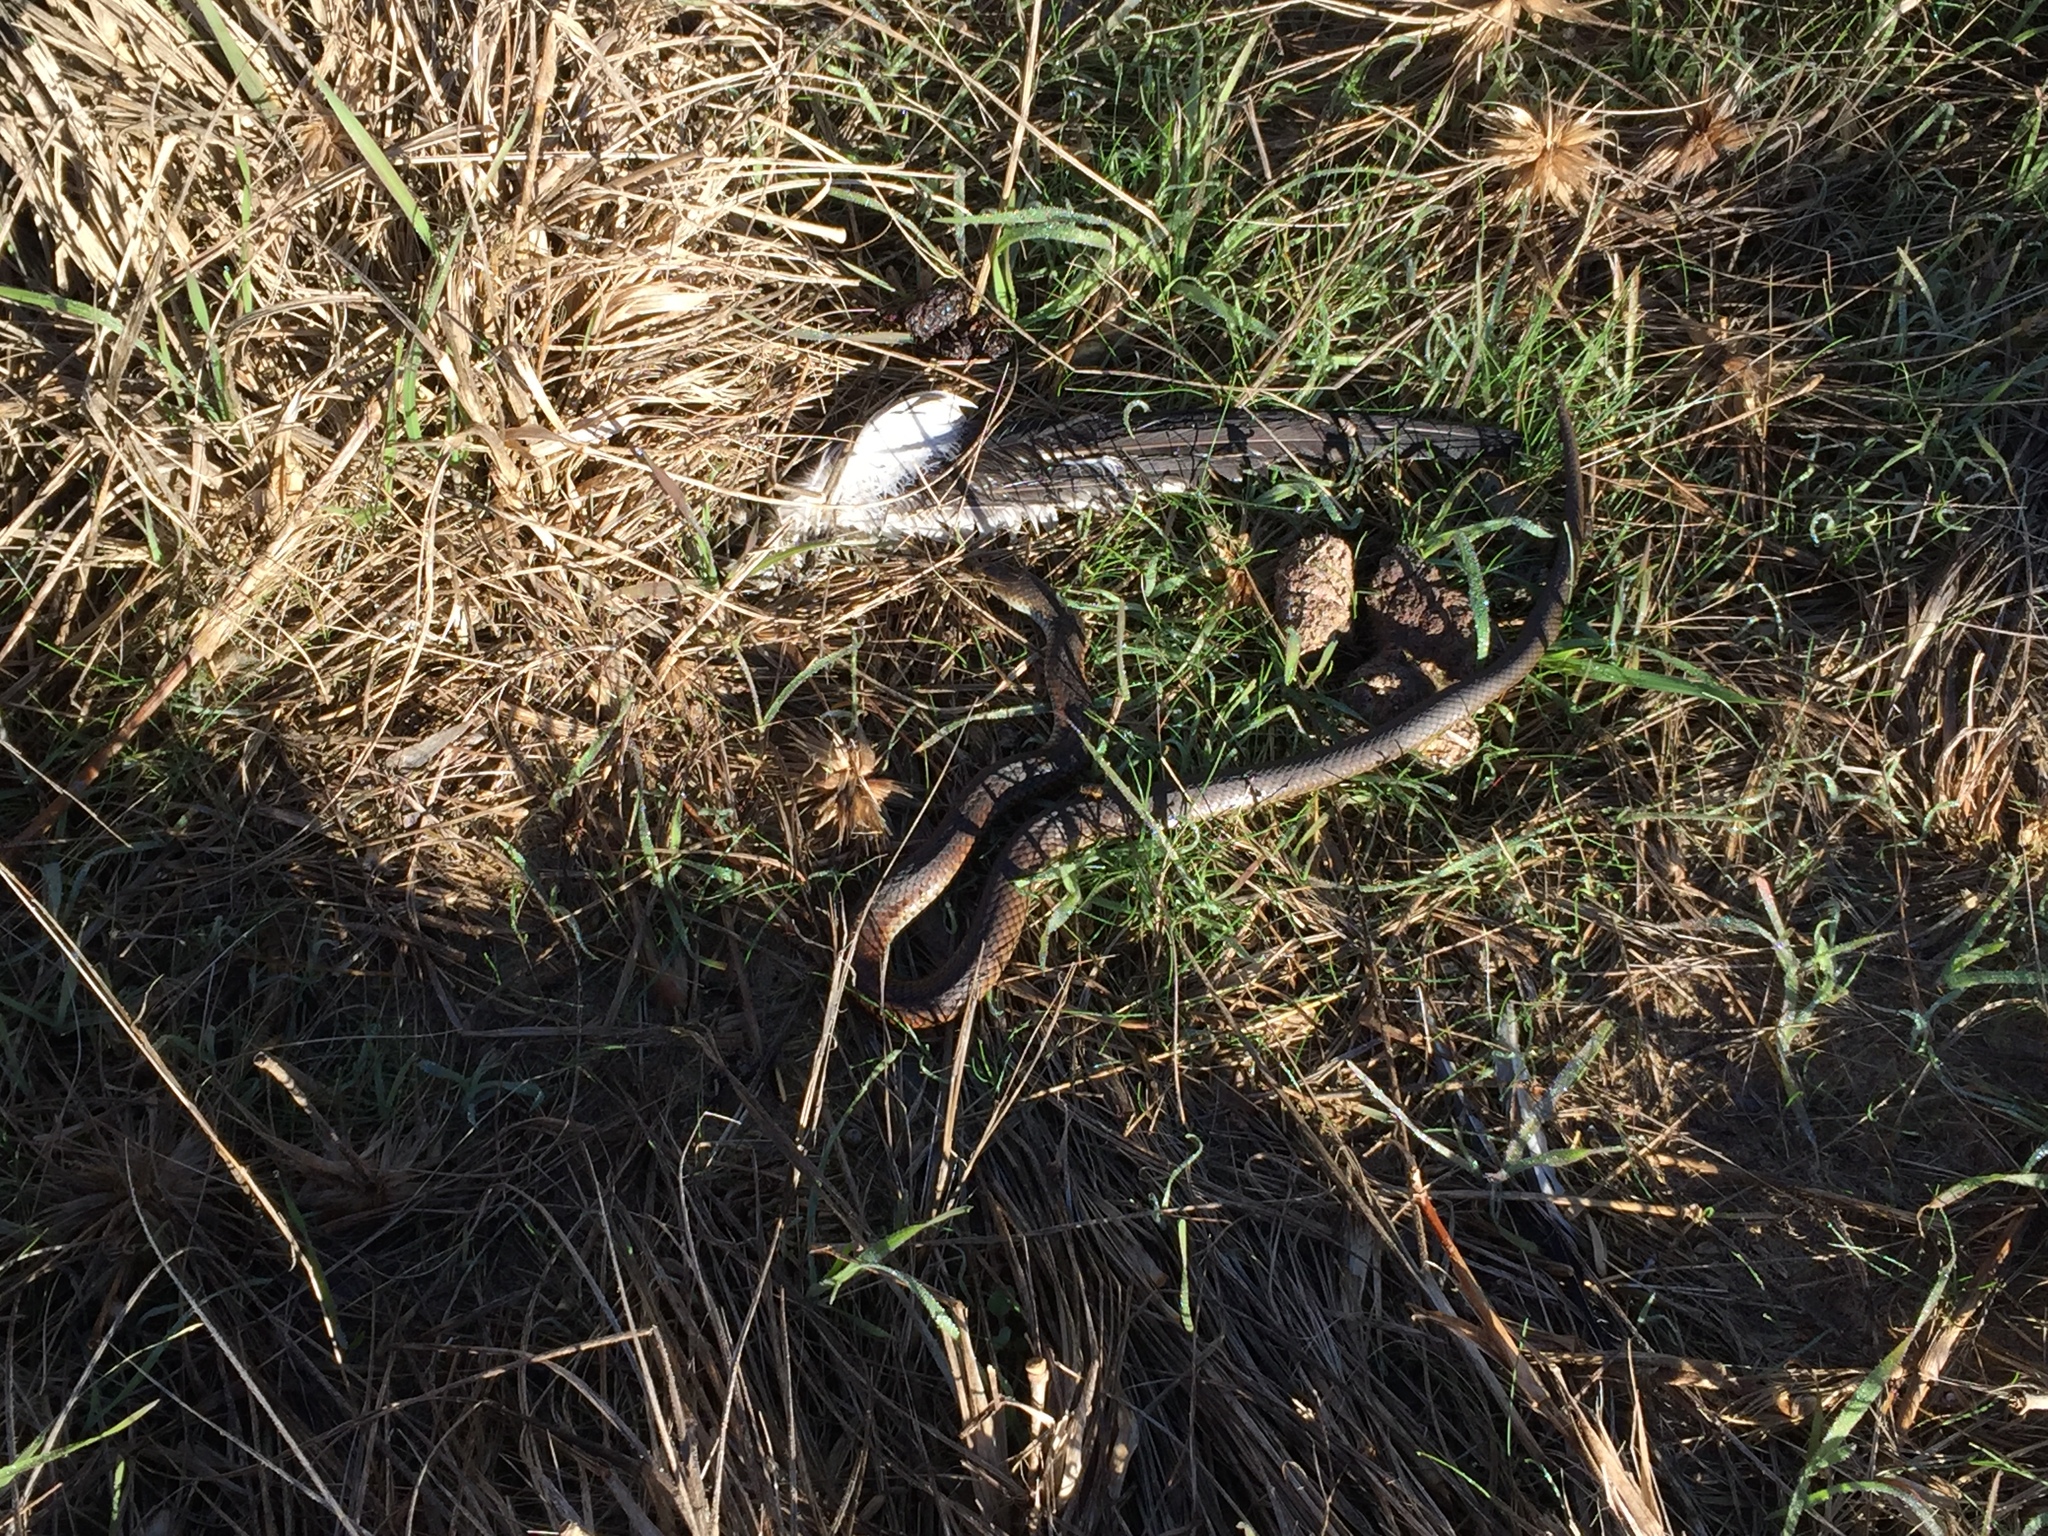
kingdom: Animalia
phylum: Chordata
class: Squamata
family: Elapidae
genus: Austrelaps
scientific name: Austrelaps superbus
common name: Copperhead snake
